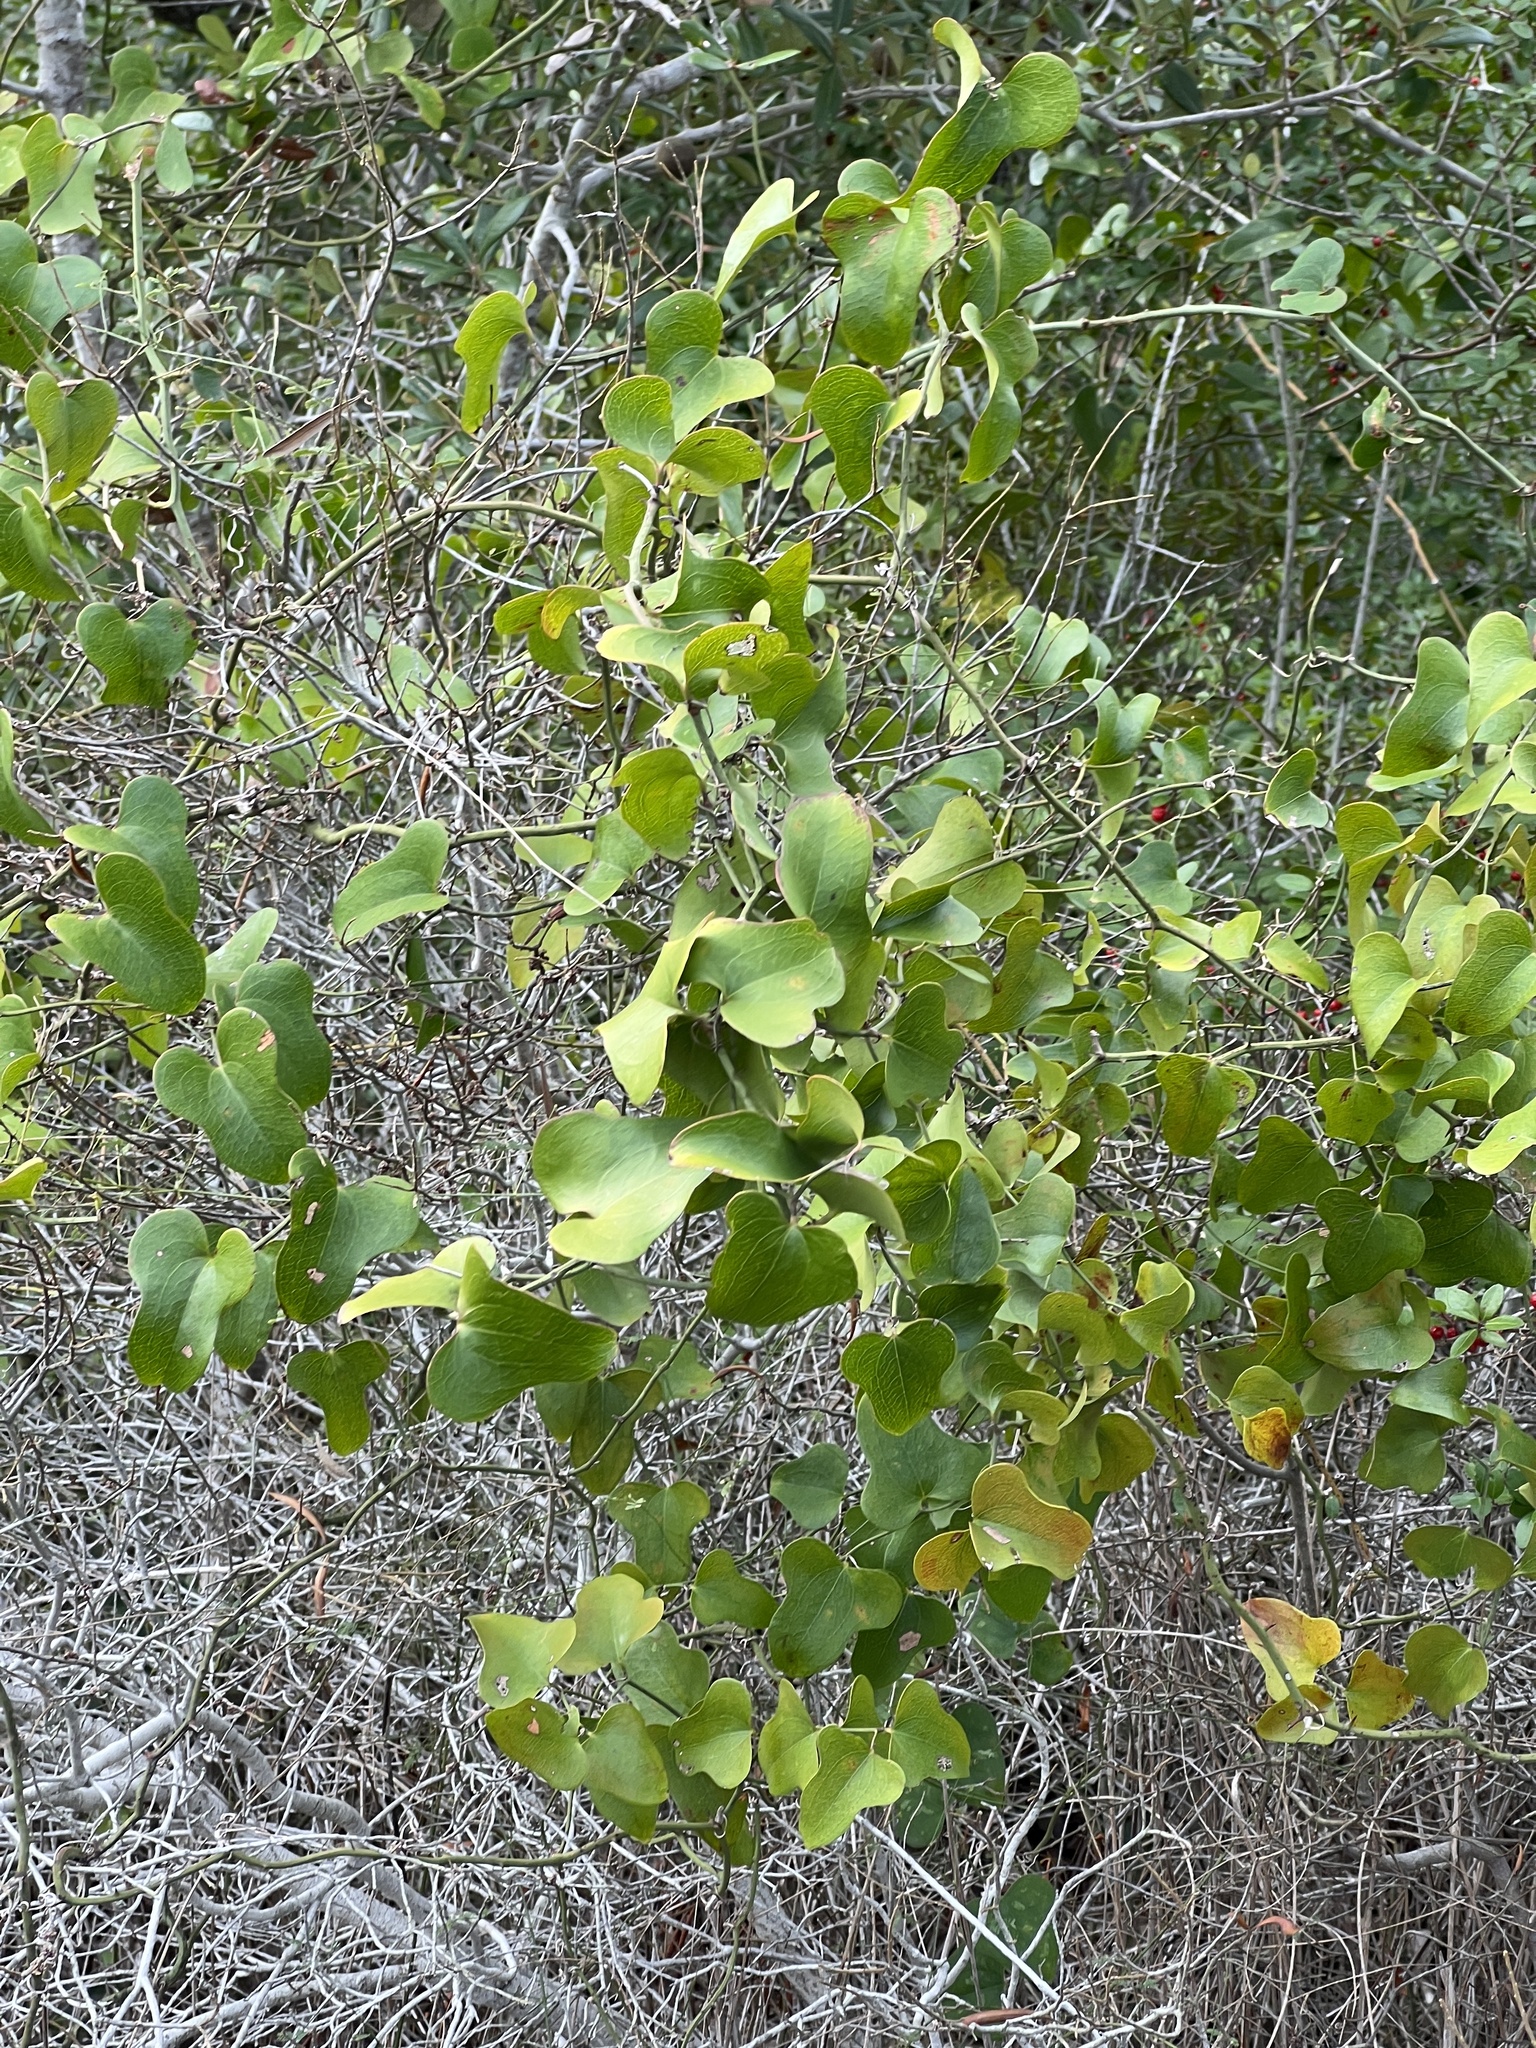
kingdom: Plantae
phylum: Tracheophyta
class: Liliopsida
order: Liliales
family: Smilacaceae
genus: Smilax
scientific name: Smilax bona-nox
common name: Catbrier
